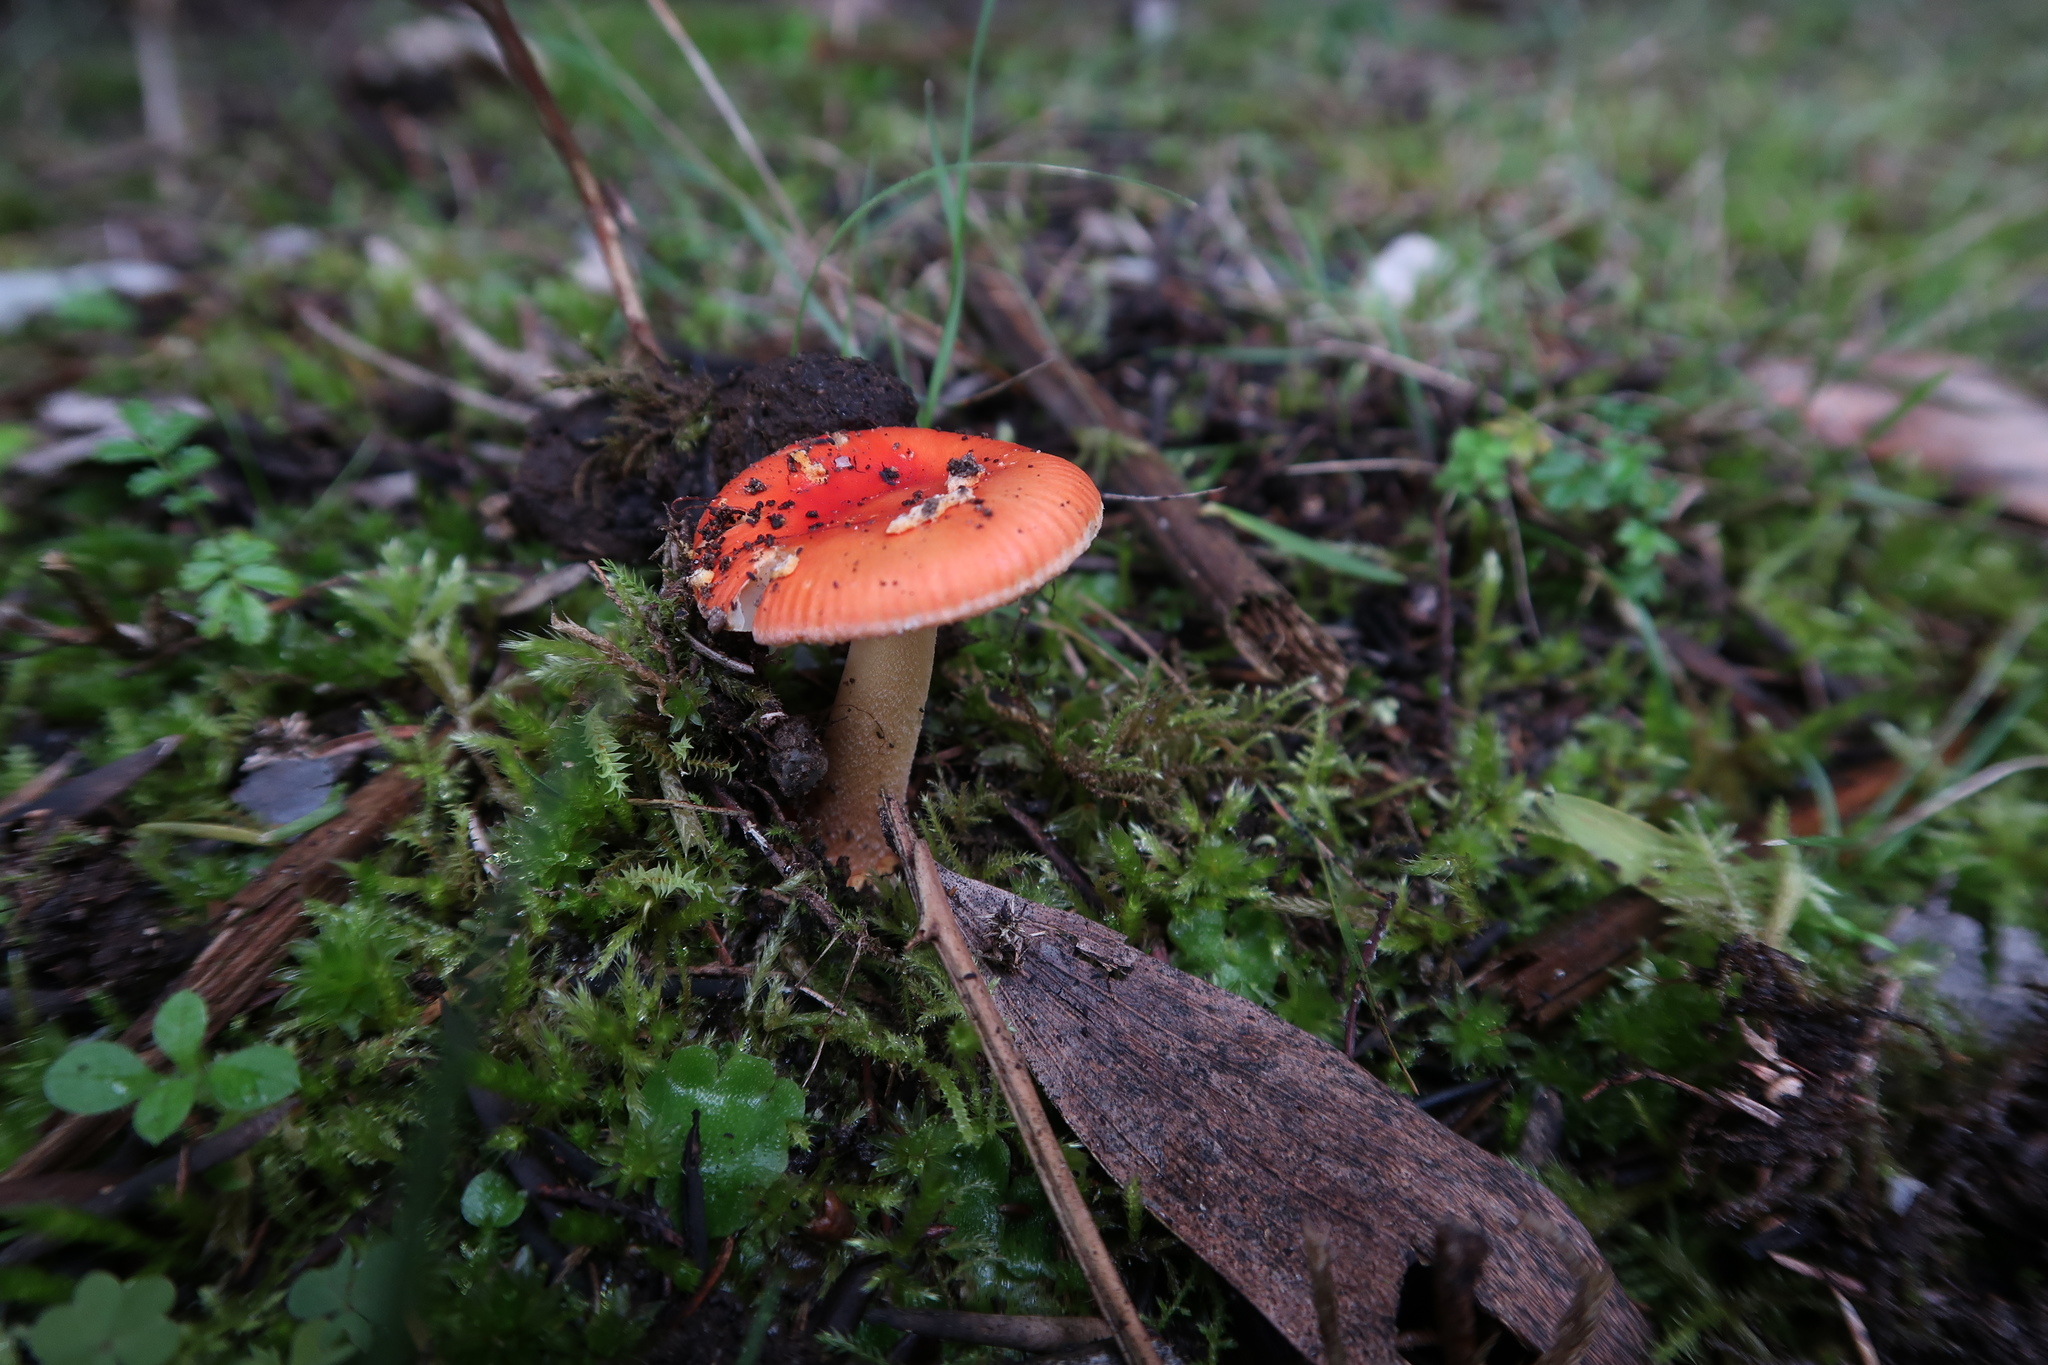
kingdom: Fungi
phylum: Basidiomycota
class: Agaricomycetes
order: Agaricales
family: Amanitaceae
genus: Amanita
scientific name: Amanita xanthocephala
